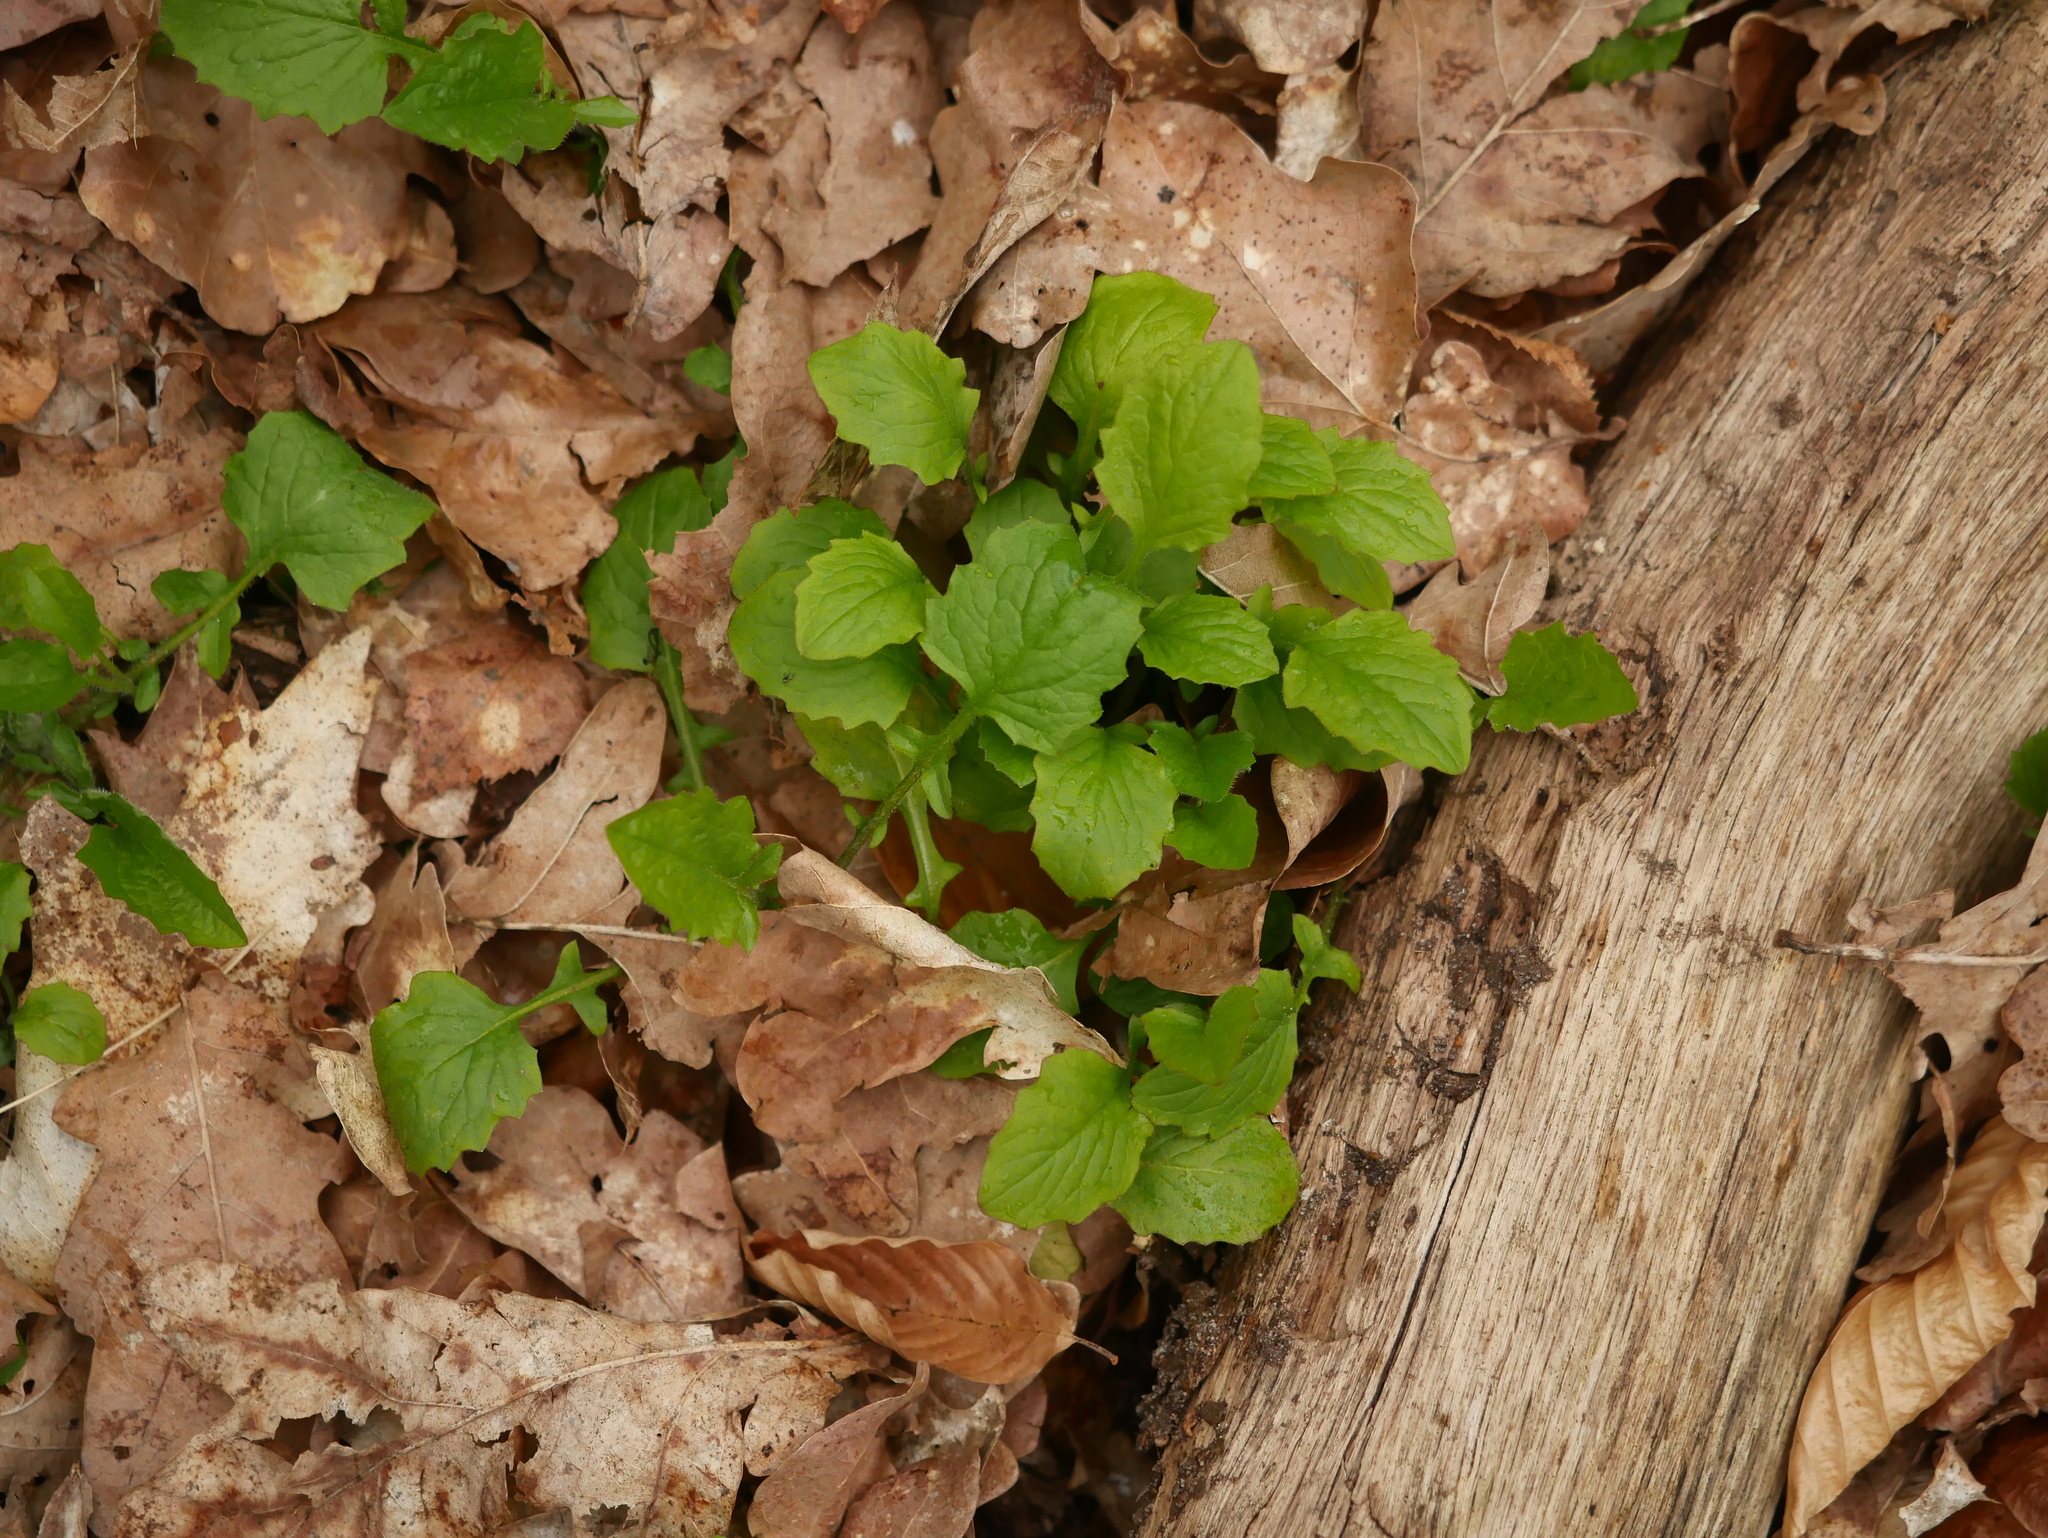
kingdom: Plantae
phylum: Tracheophyta
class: Magnoliopsida
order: Asterales
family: Asteraceae
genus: Lapsana
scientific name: Lapsana communis
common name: Nipplewort
